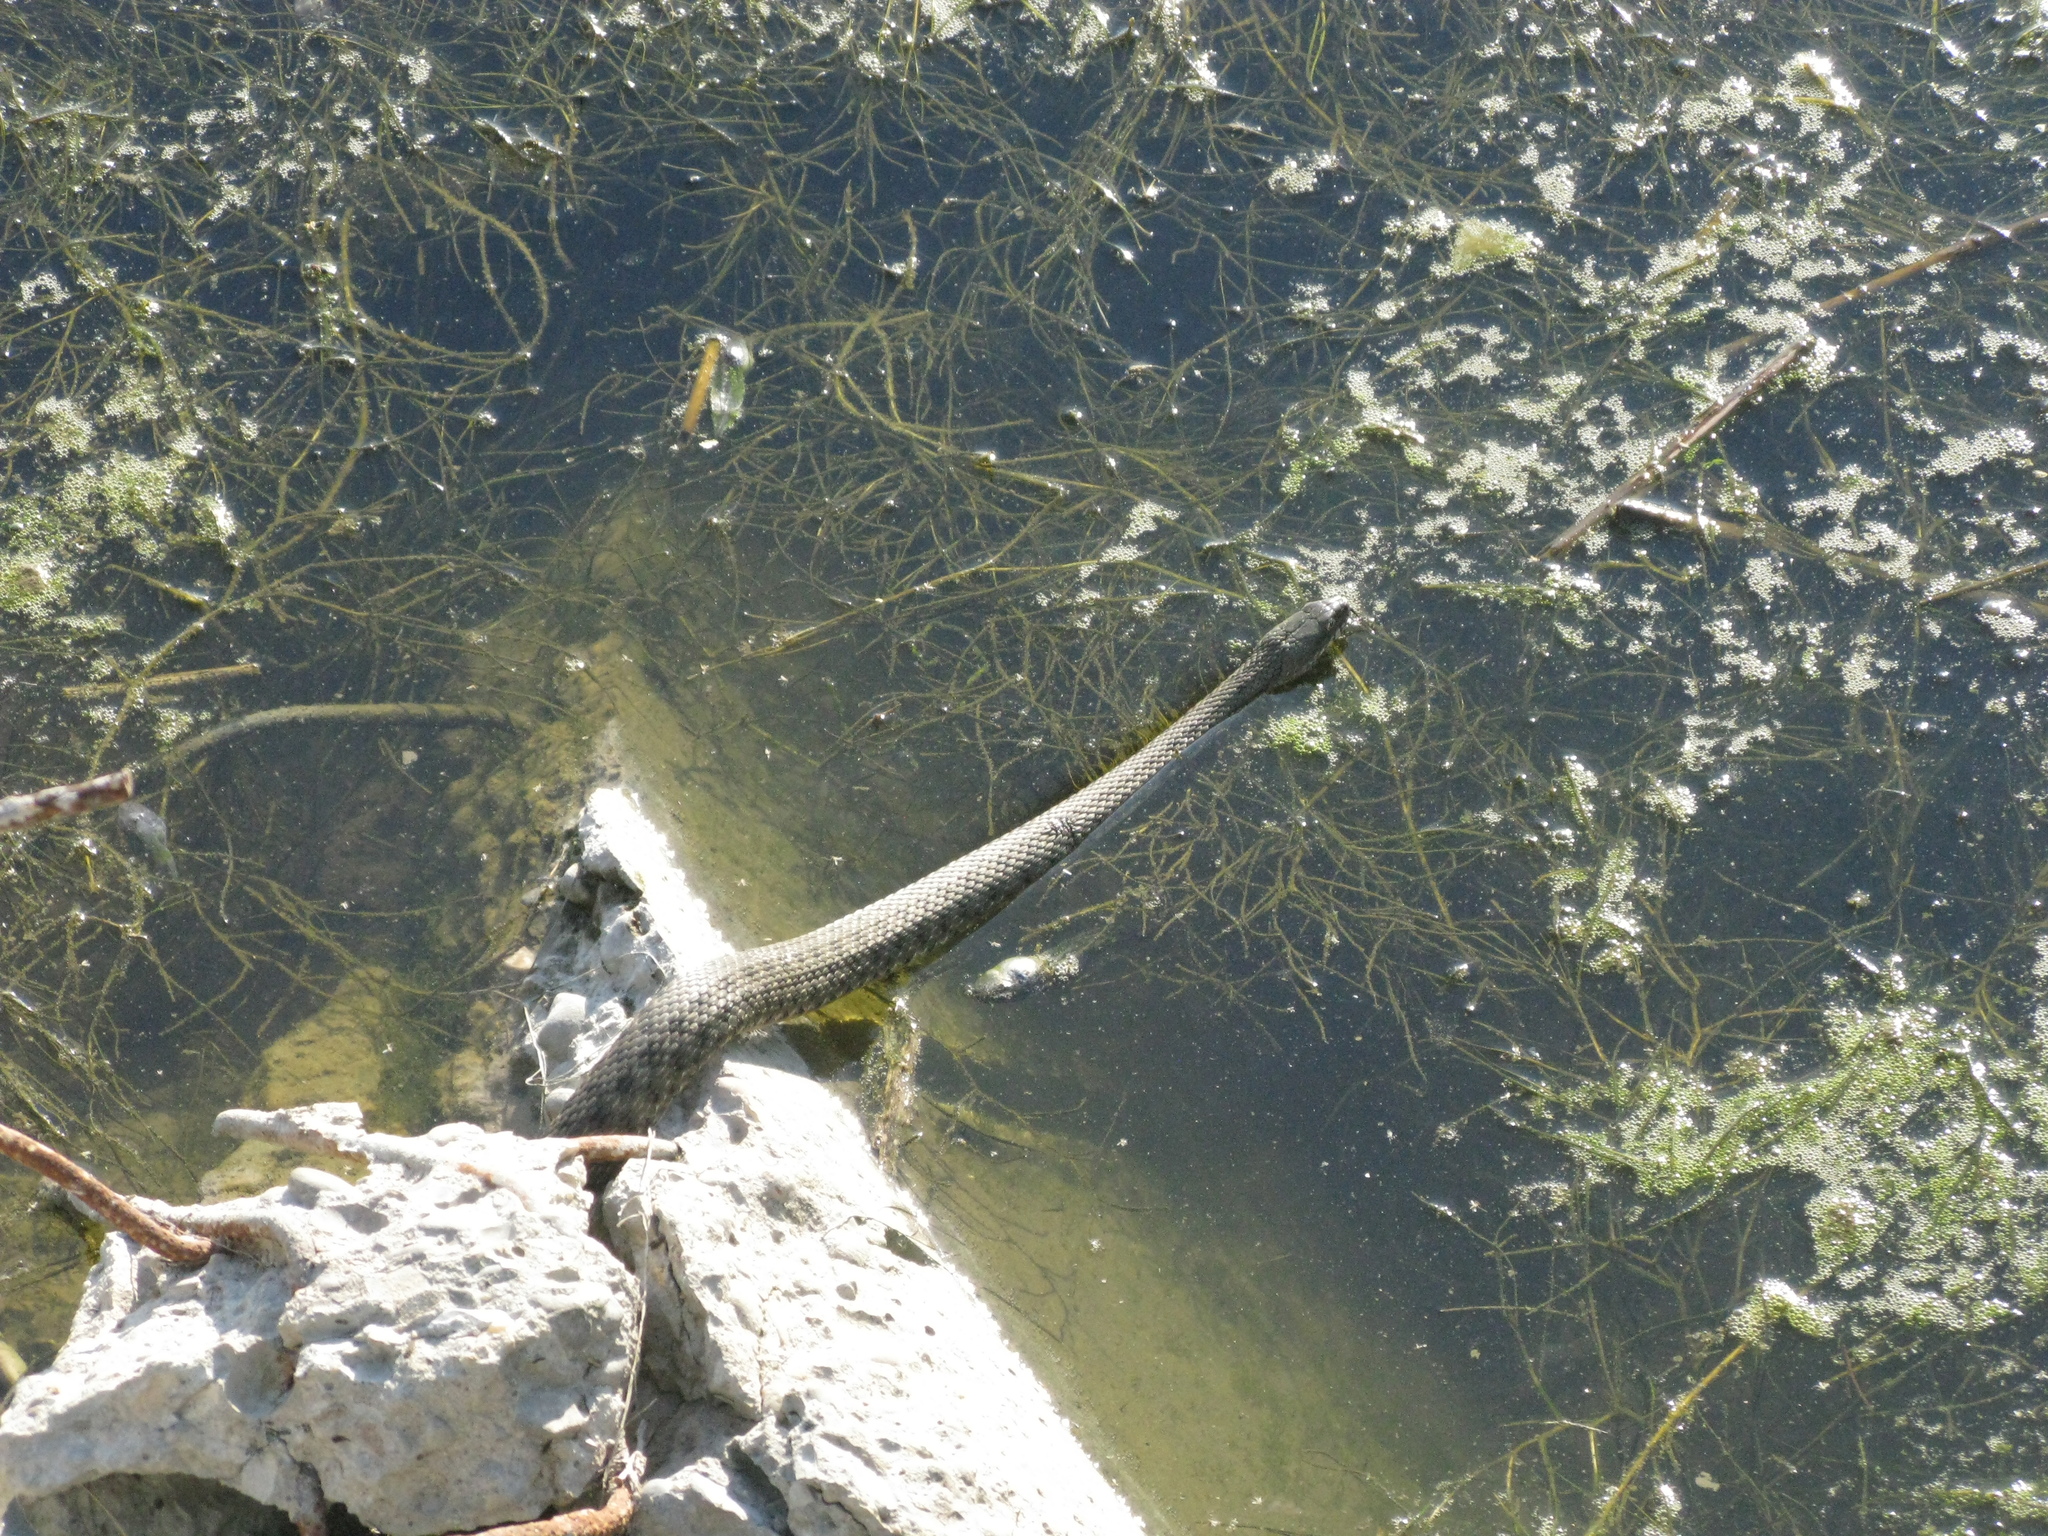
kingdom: Animalia
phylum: Chordata
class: Squamata
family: Colubridae
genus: Natrix
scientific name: Natrix tessellata
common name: Dice snake
